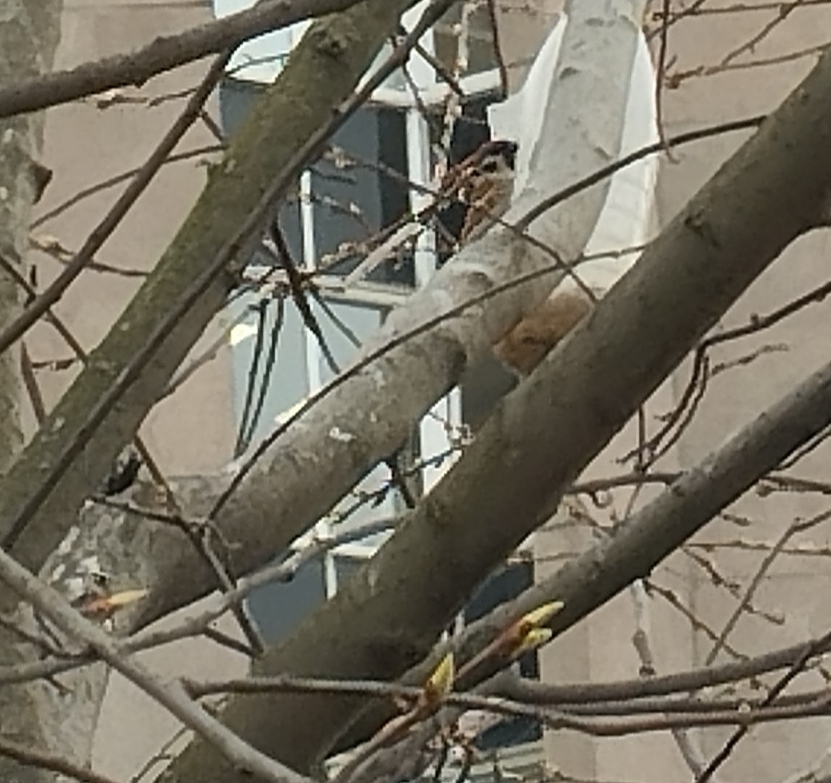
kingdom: Animalia
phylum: Chordata
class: Aves
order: Passeriformes
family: Passeridae
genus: Passer
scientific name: Passer montanus
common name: Eurasian tree sparrow
